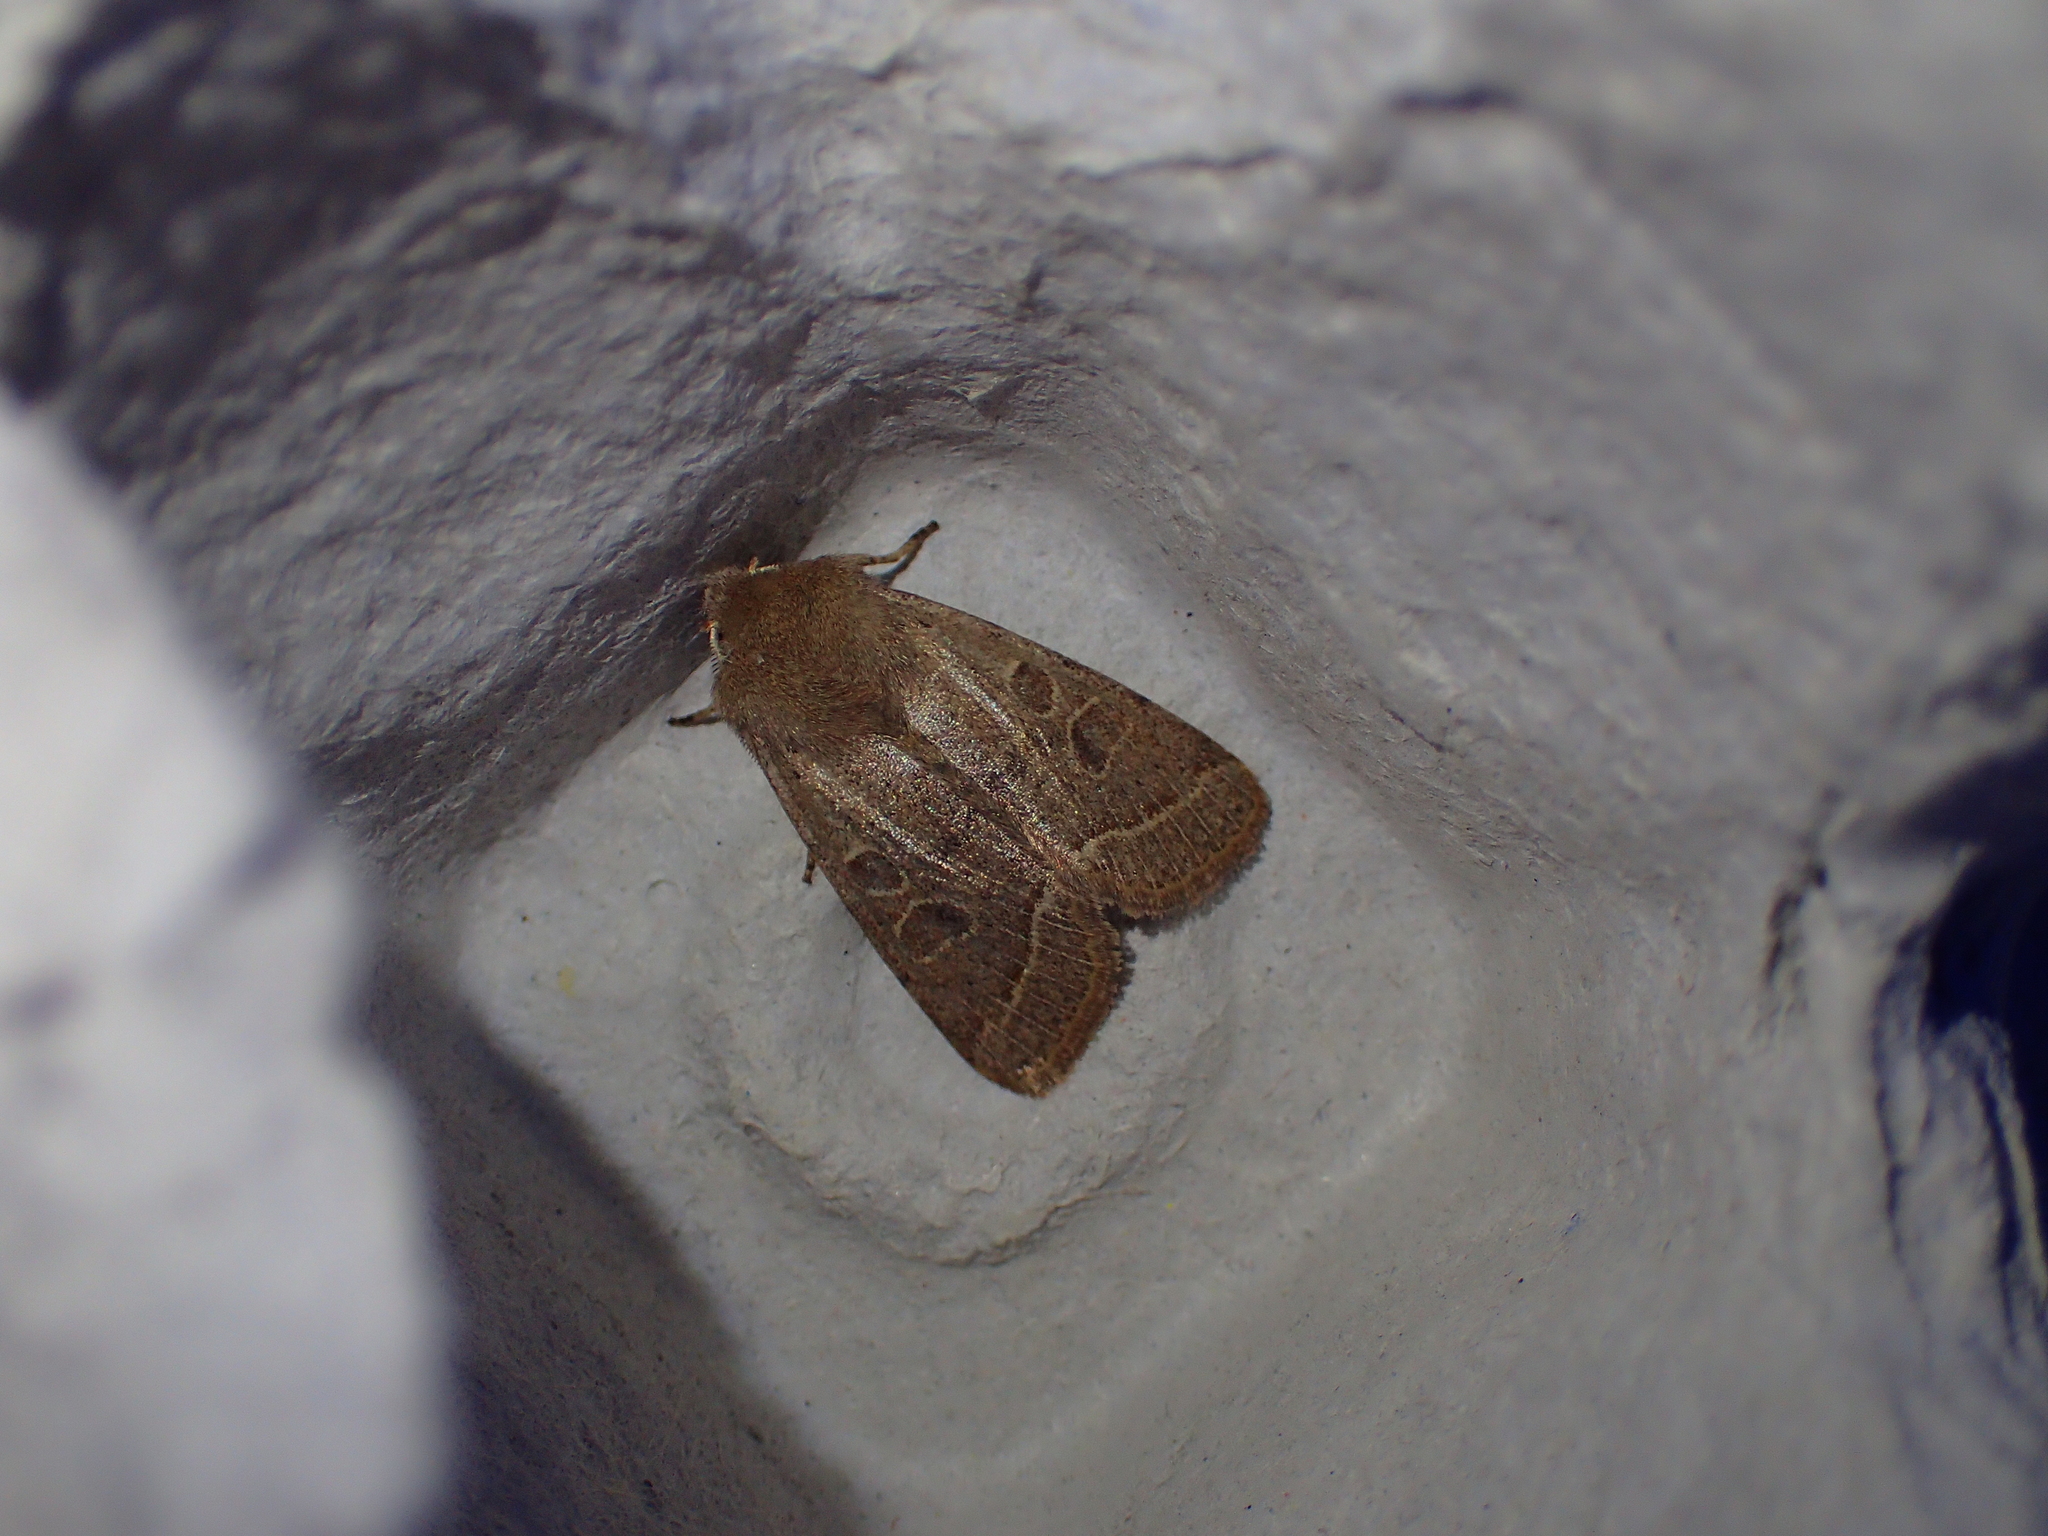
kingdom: Animalia
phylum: Arthropoda
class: Insecta
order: Lepidoptera
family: Noctuidae
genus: Orthosia
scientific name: Orthosia cerasi
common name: Common quaker
